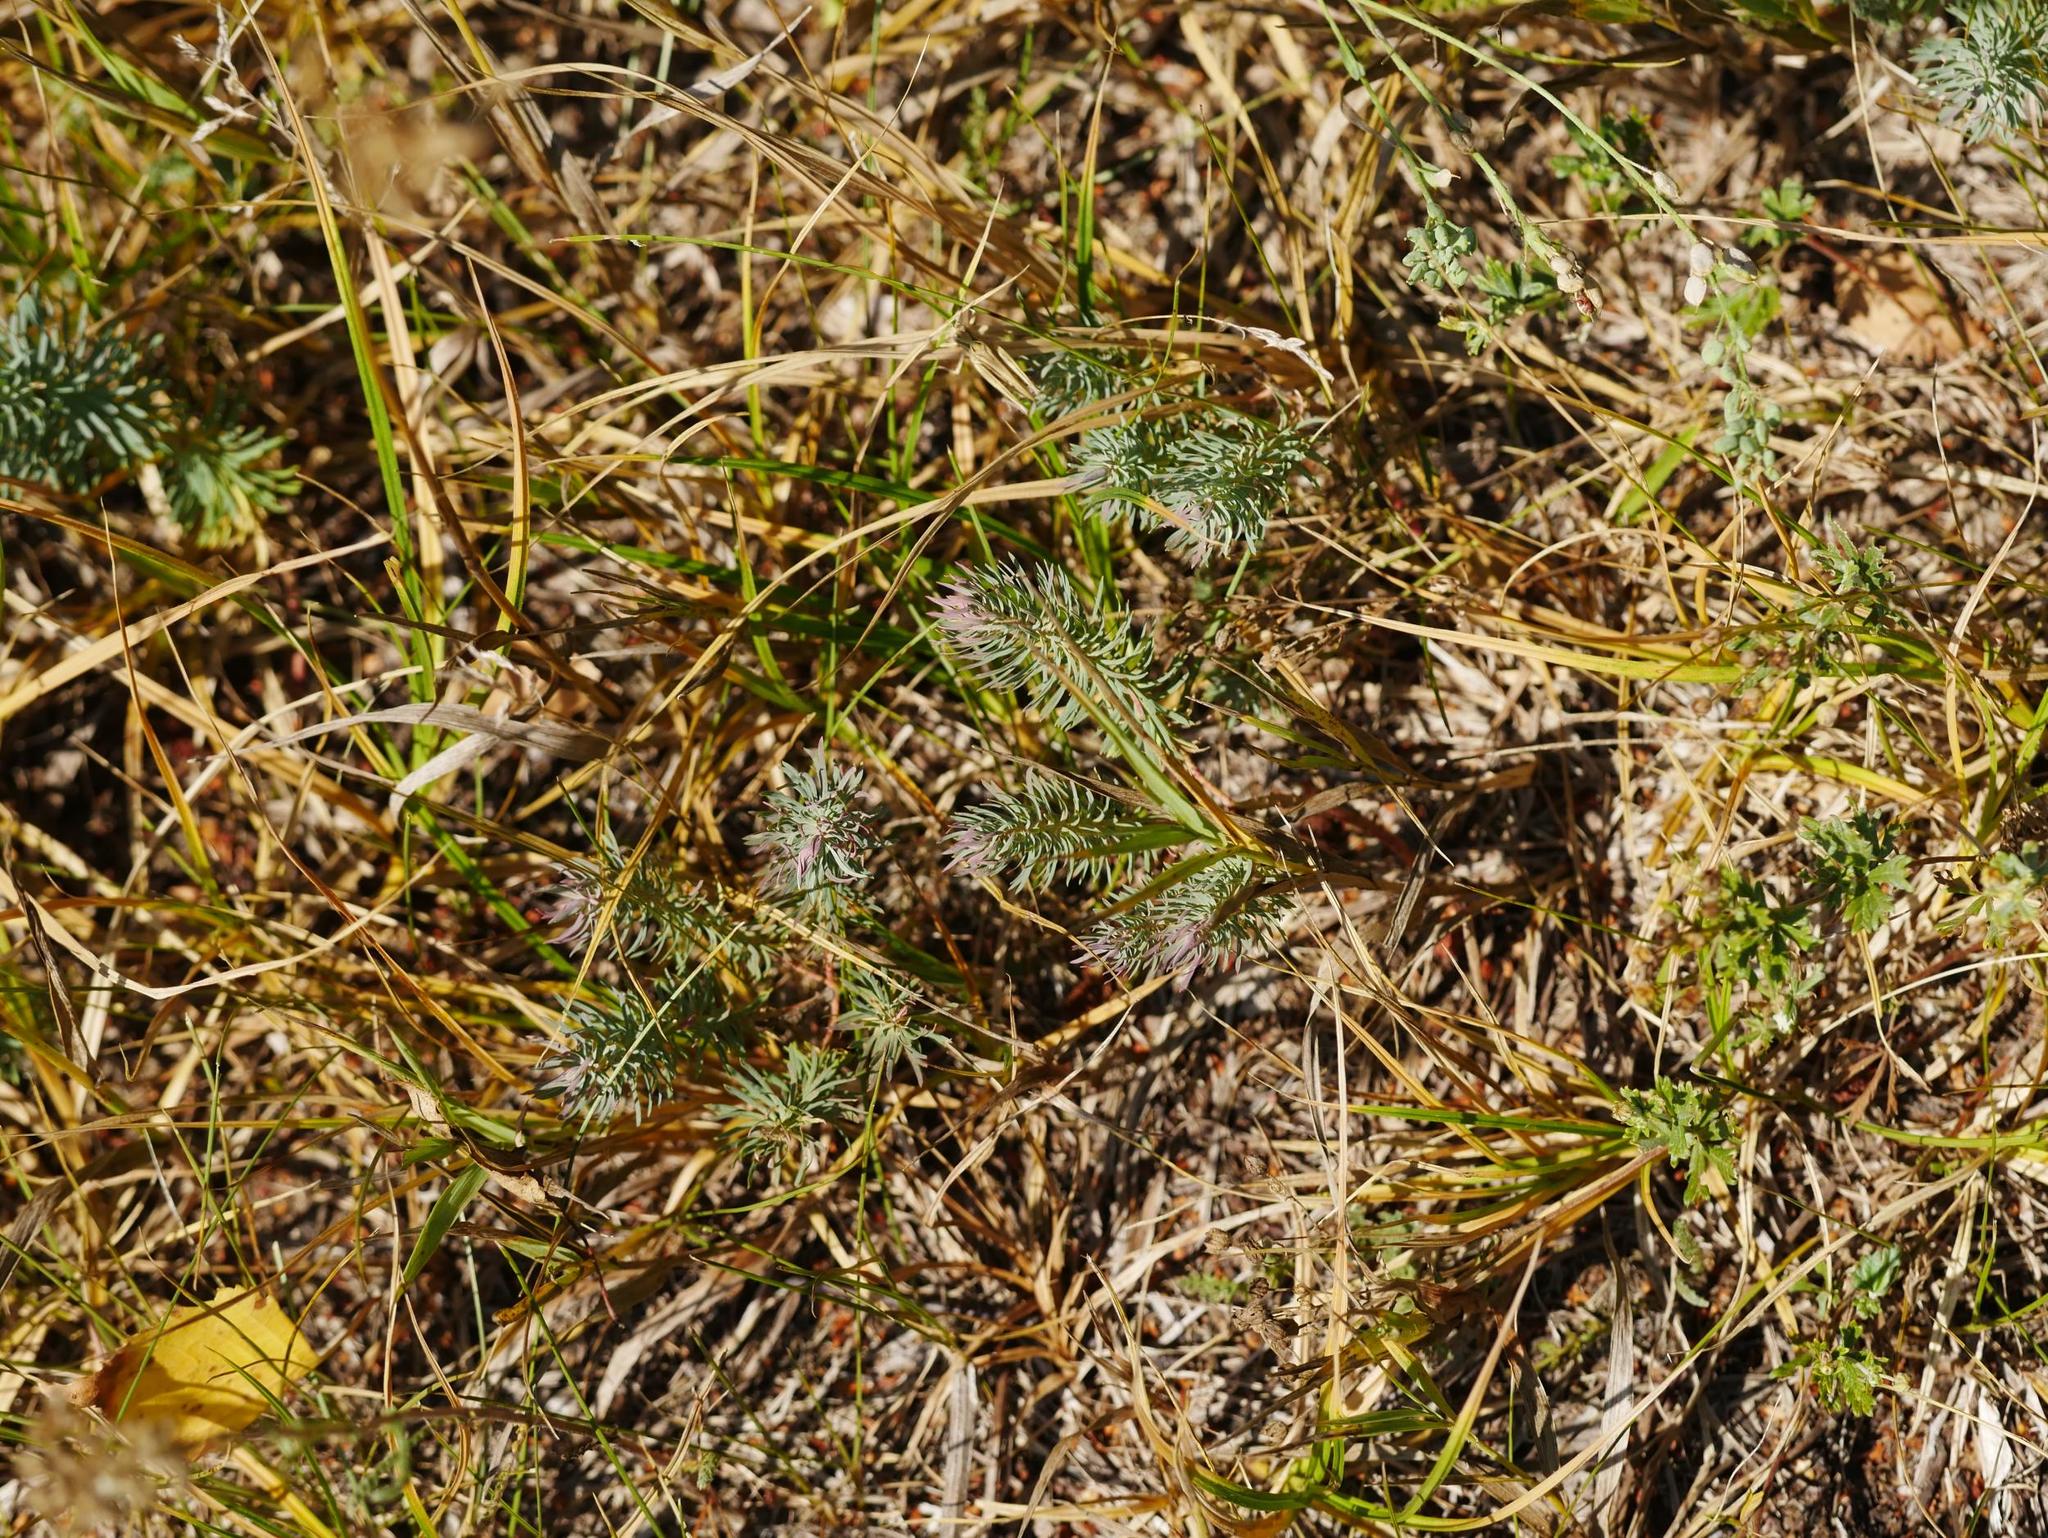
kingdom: Plantae
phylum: Tracheophyta
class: Magnoliopsida
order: Malpighiales
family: Euphorbiaceae
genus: Euphorbia
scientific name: Euphorbia cyparissias
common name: Cypress spurge
